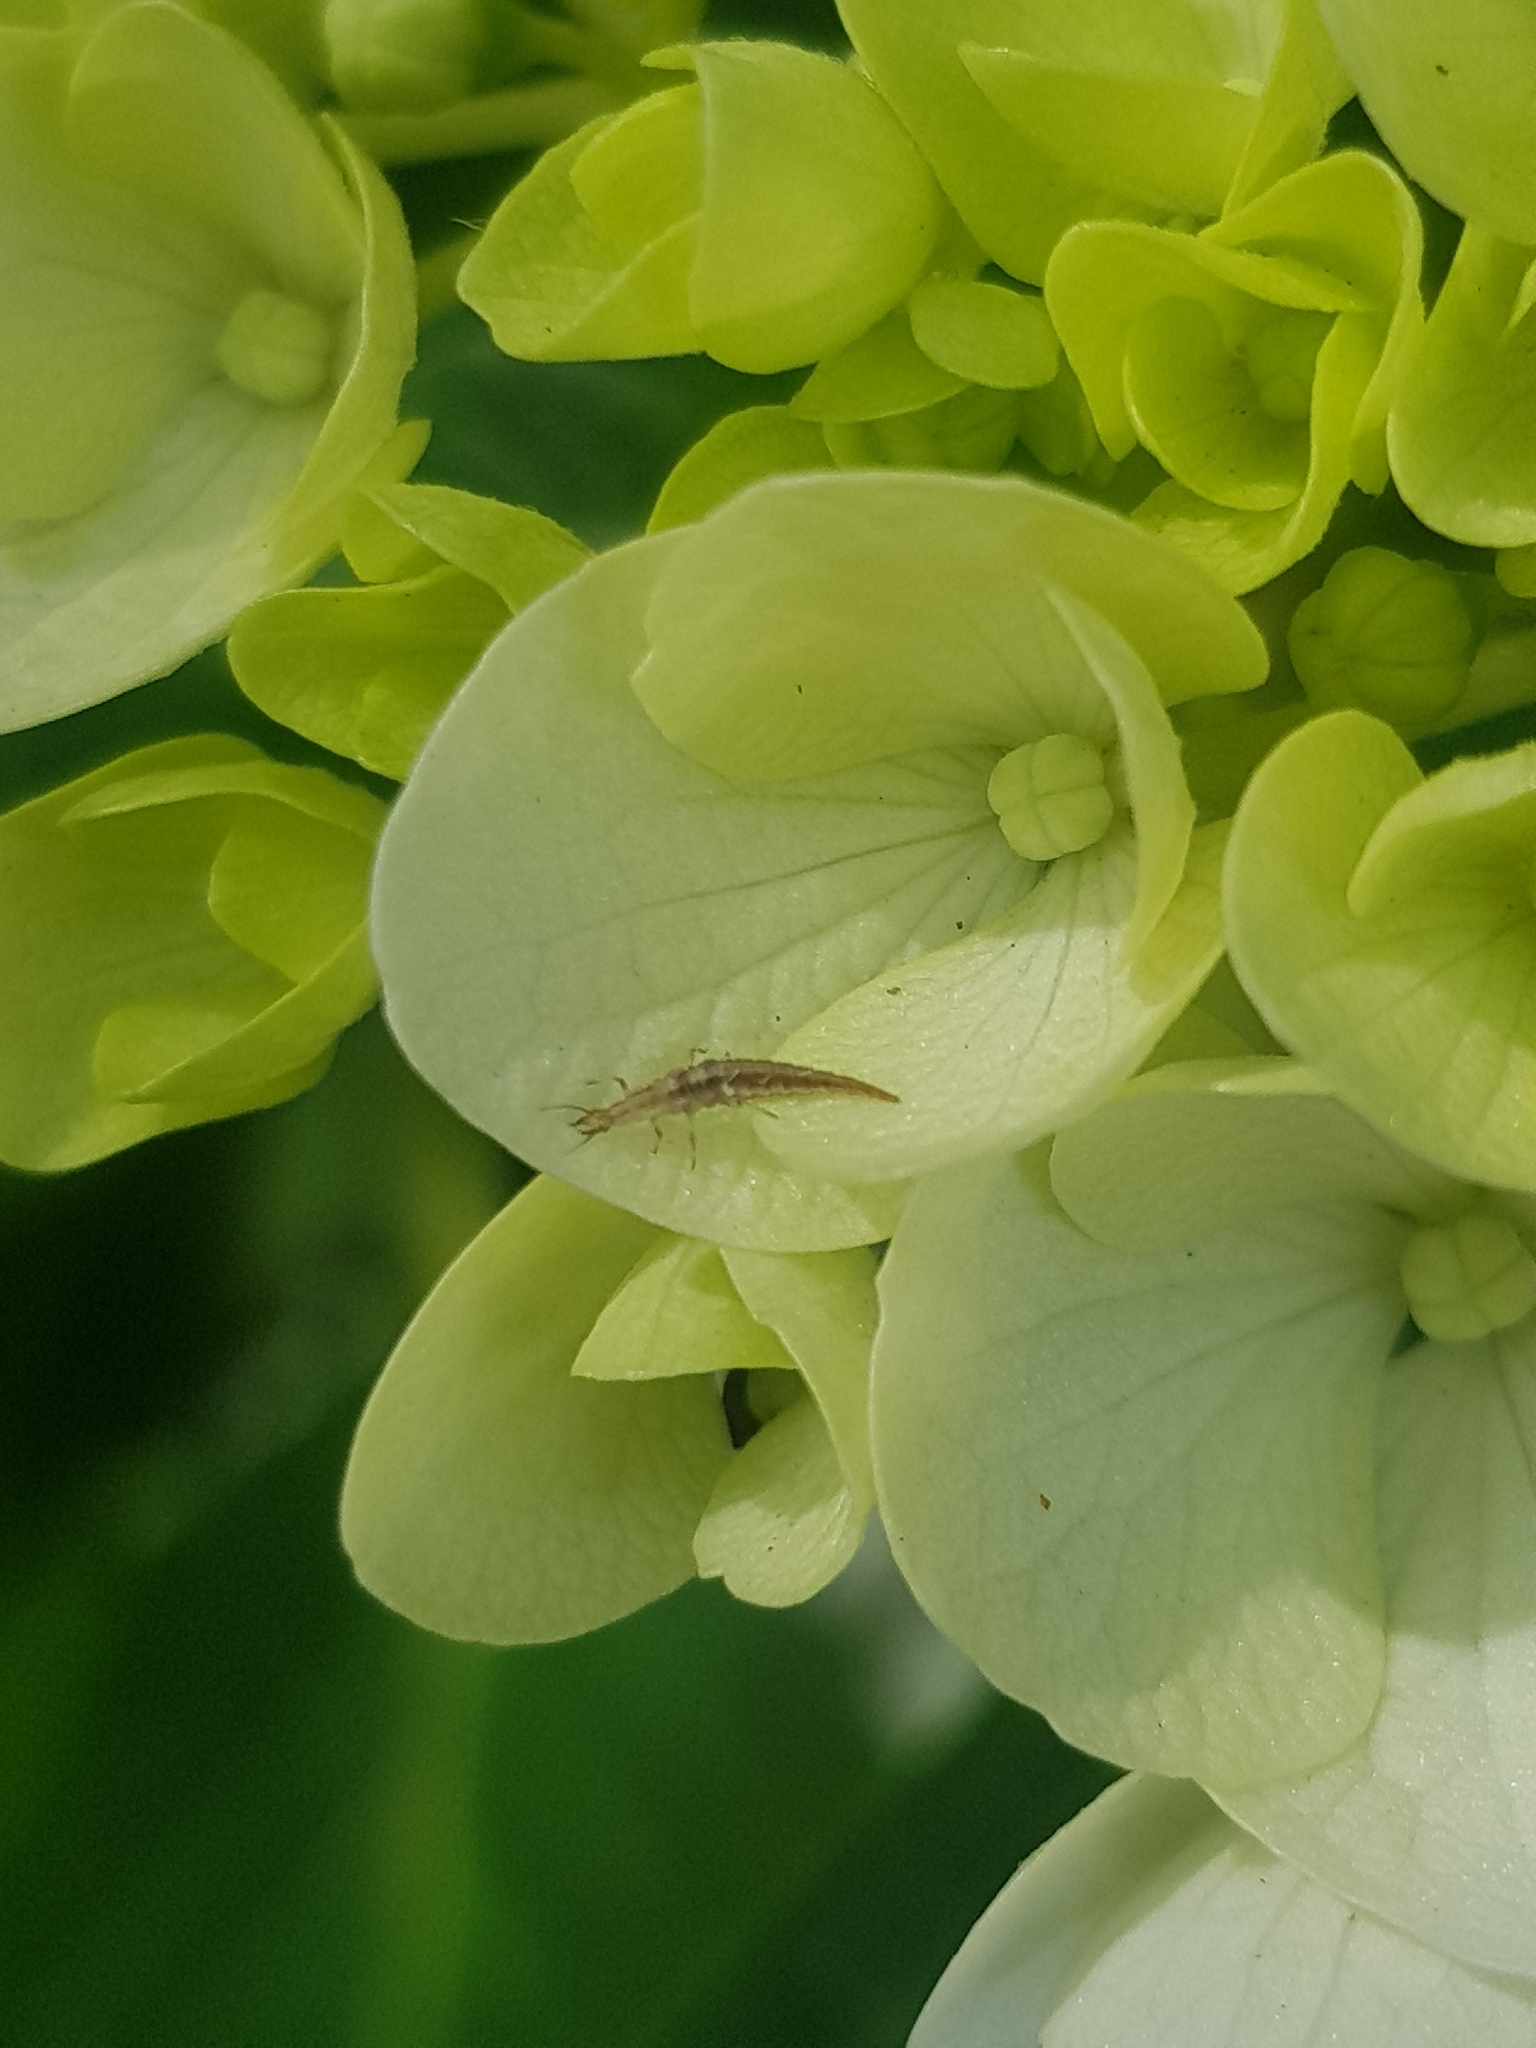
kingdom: Animalia
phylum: Arthropoda
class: Insecta
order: Neuroptera
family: Hemerobiidae
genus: Micromus
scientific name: Micromus tasmaniae
